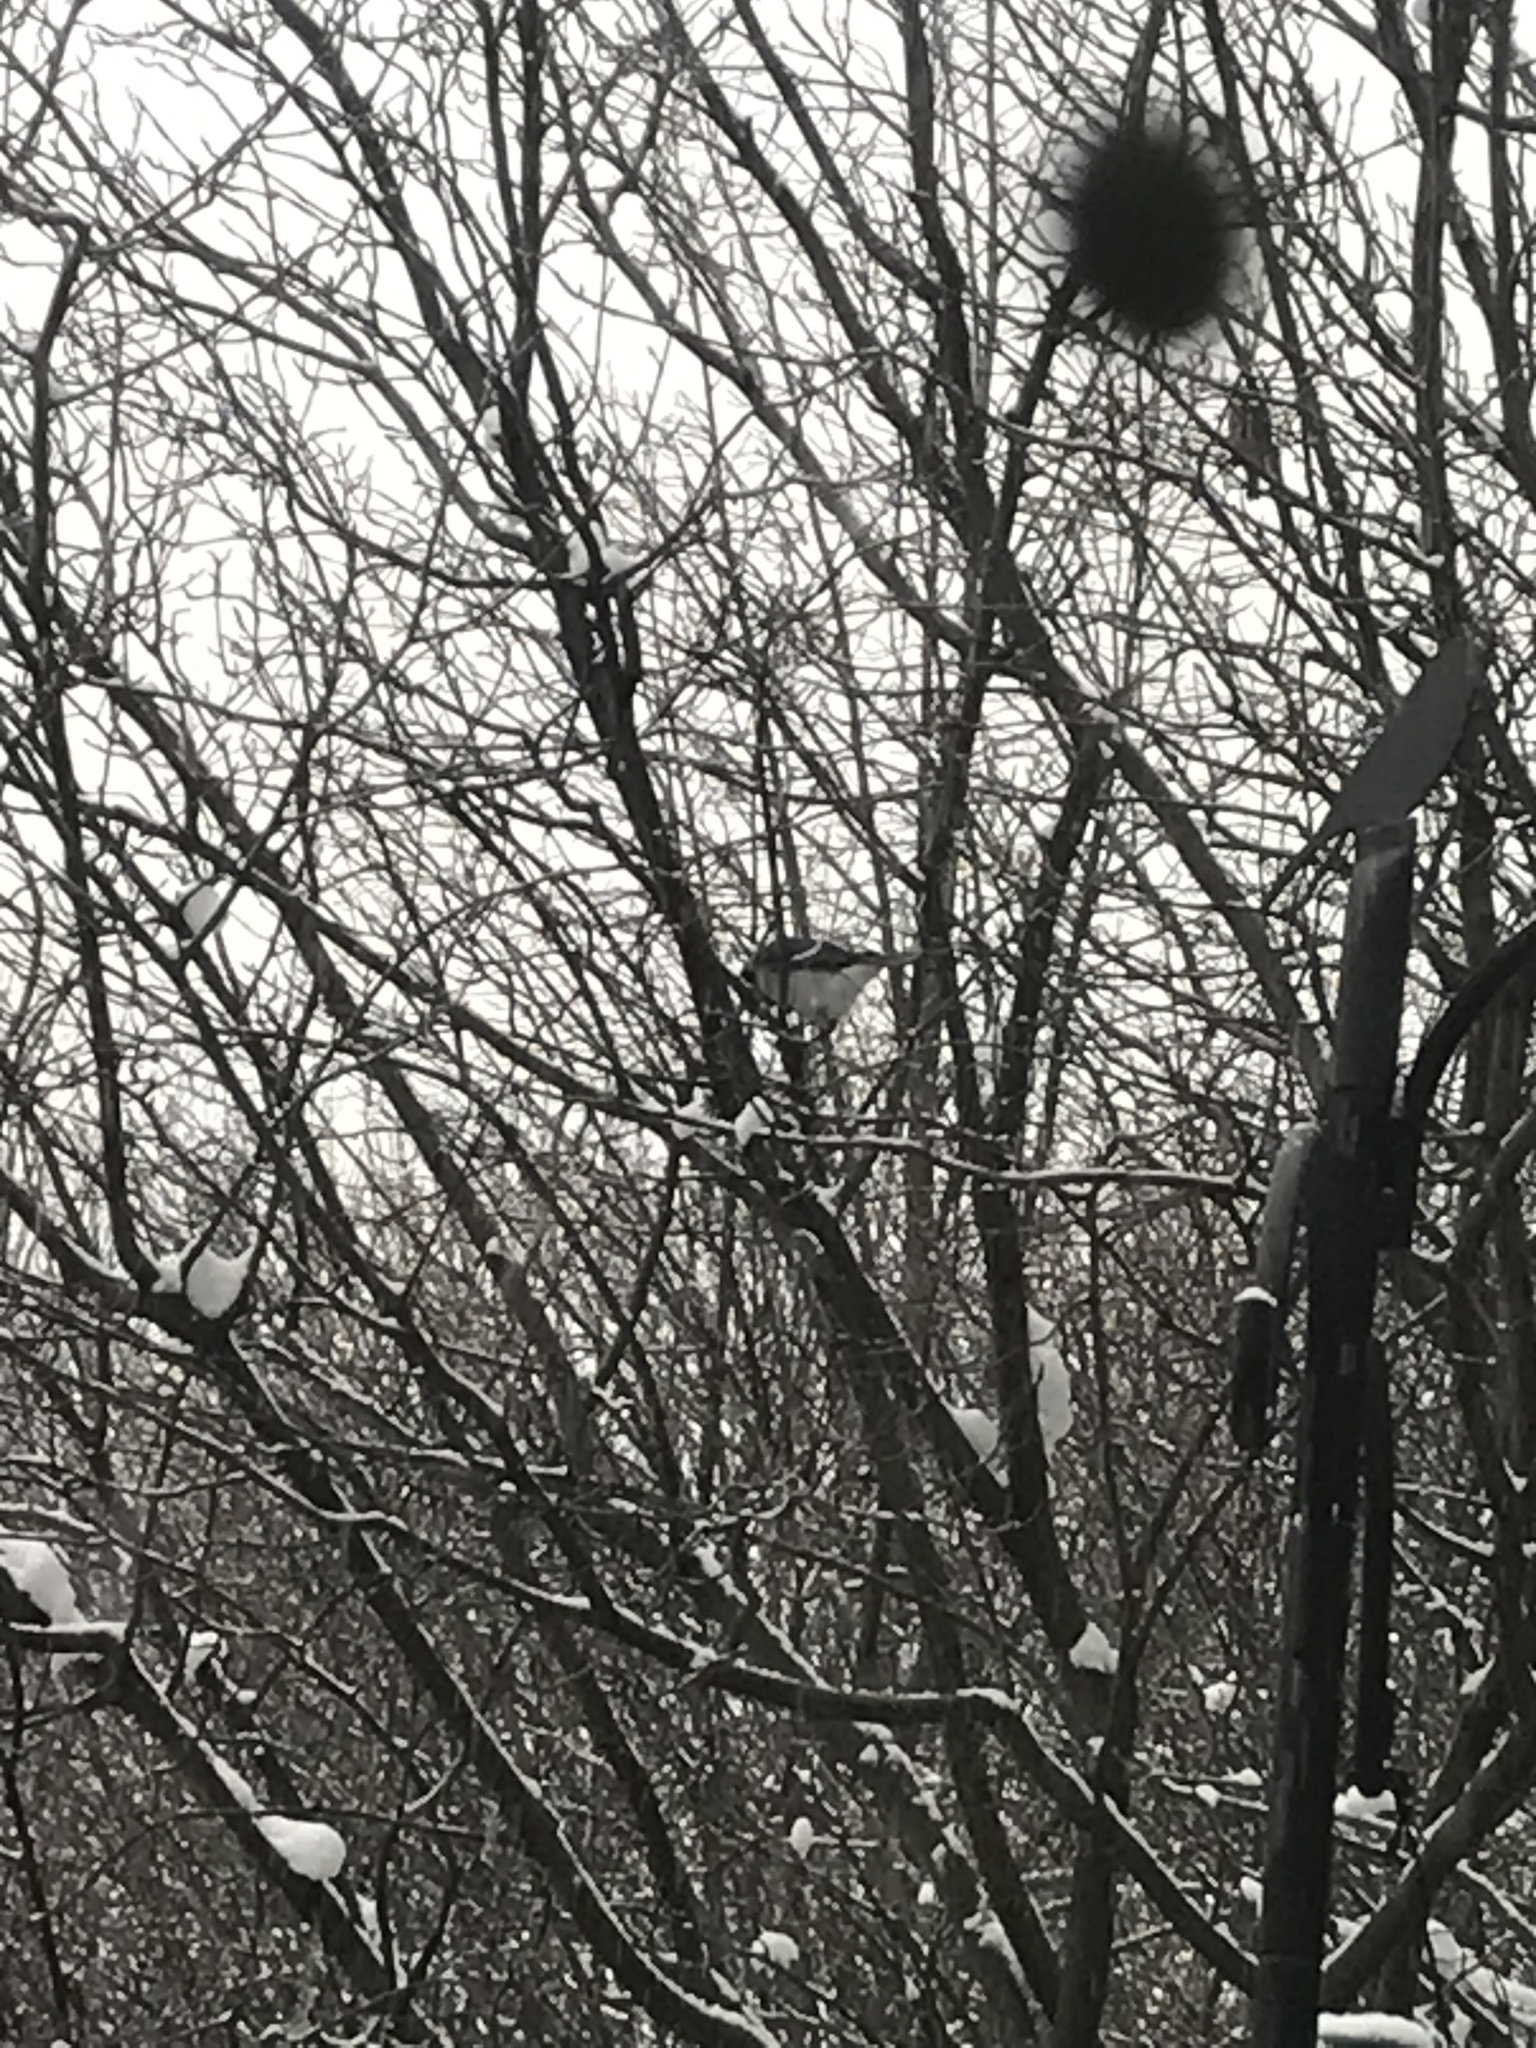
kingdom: Animalia
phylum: Chordata
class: Aves
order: Passeriformes
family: Corvidae
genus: Cyanocitta
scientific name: Cyanocitta cristata
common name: Blue jay
